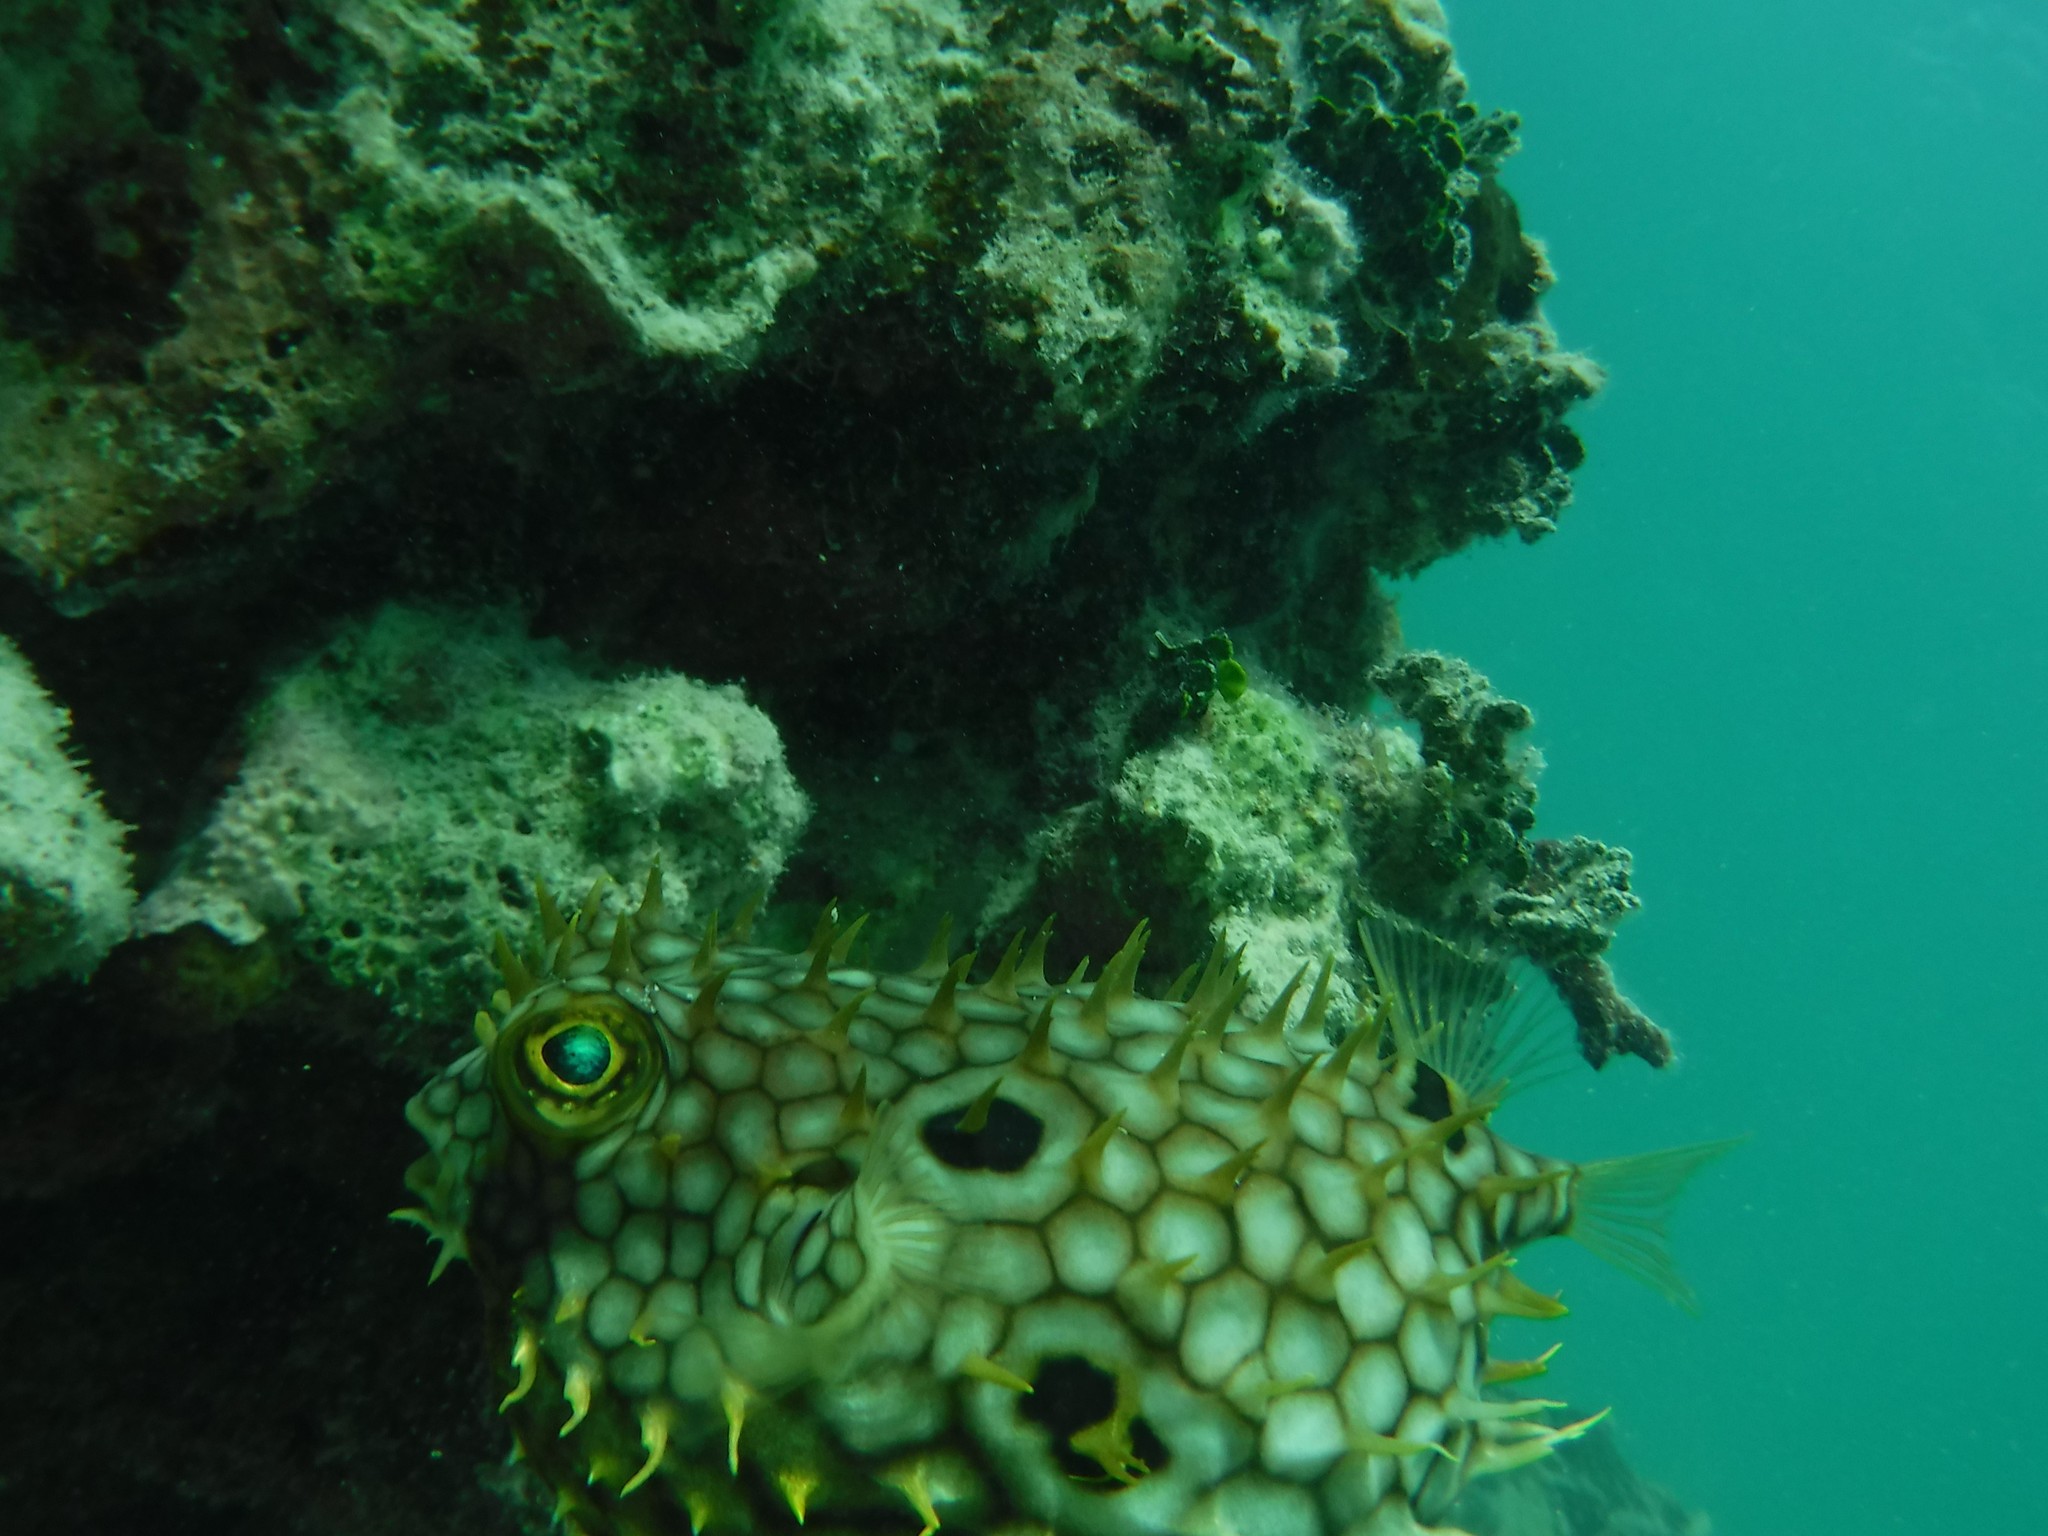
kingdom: Animalia
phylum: Chordata
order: Tetraodontiformes
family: Diodontidae
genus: Chilomycterus
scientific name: Chilomycterus antillarum
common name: Web burrfish
